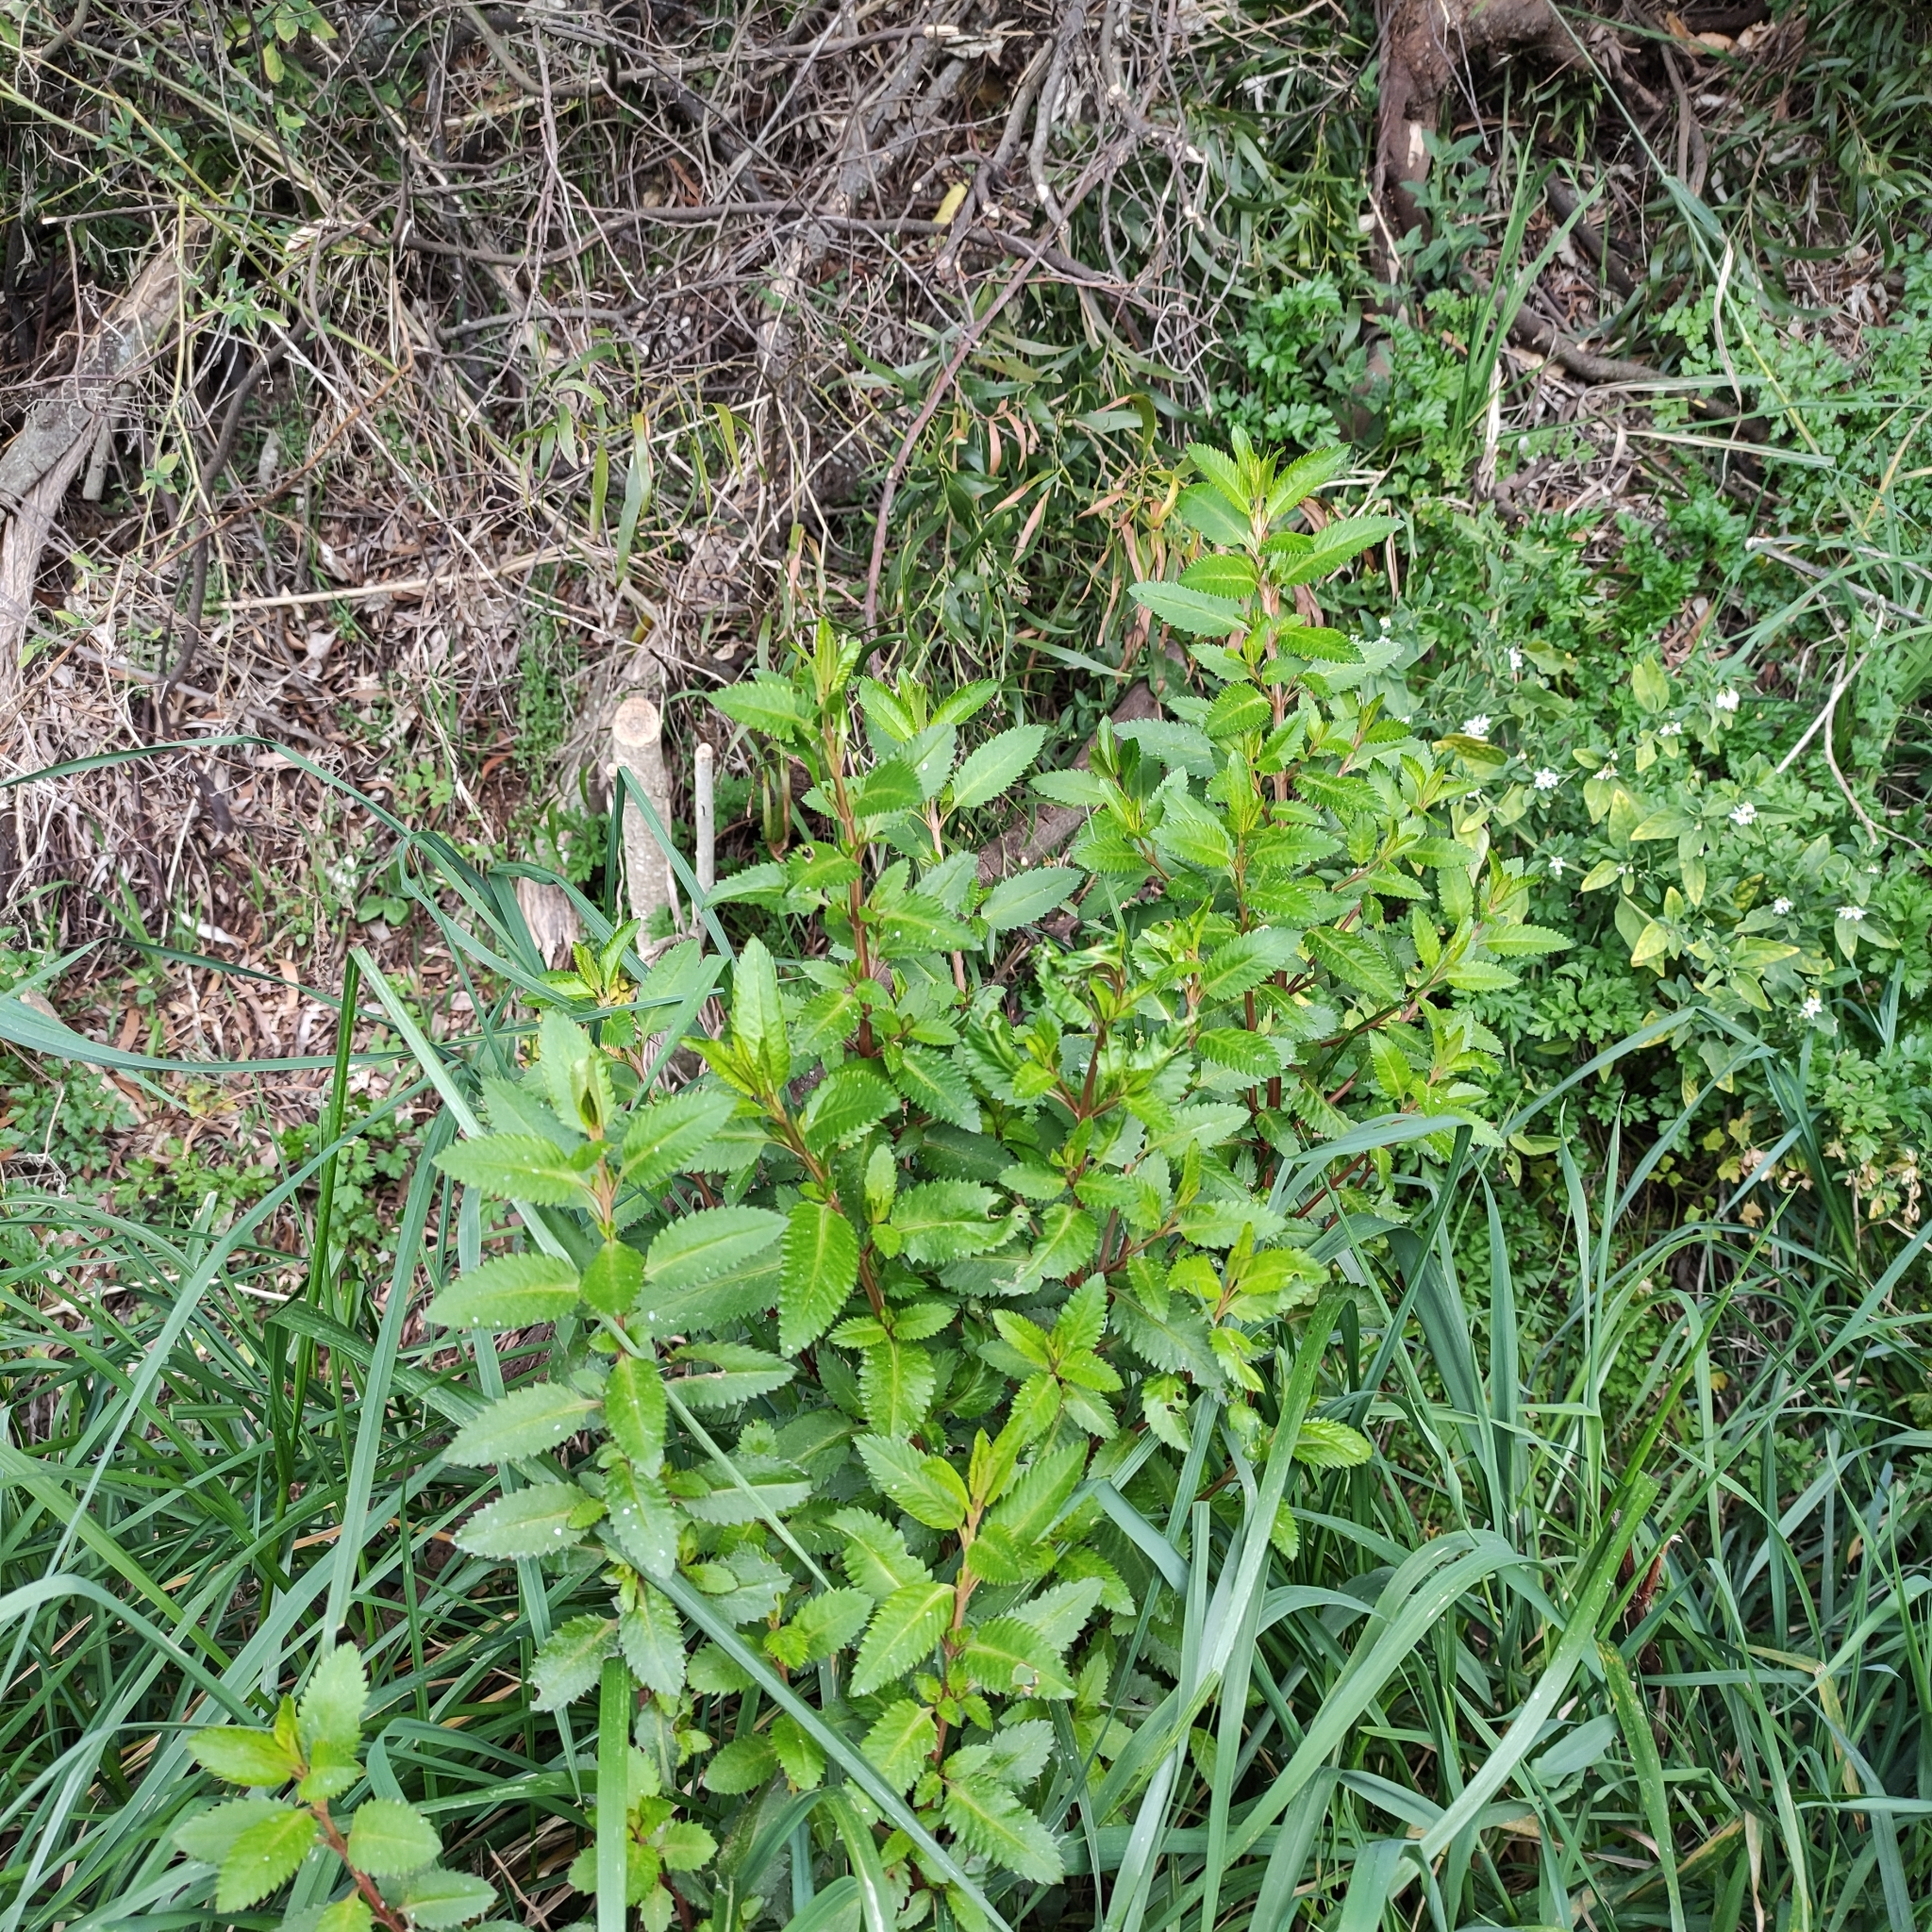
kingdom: Plantae
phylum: Tracheophyta
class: Magnoliopsida
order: Saxifragales
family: Haloragaceae
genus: Haloragis
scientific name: Haloragis erecta
